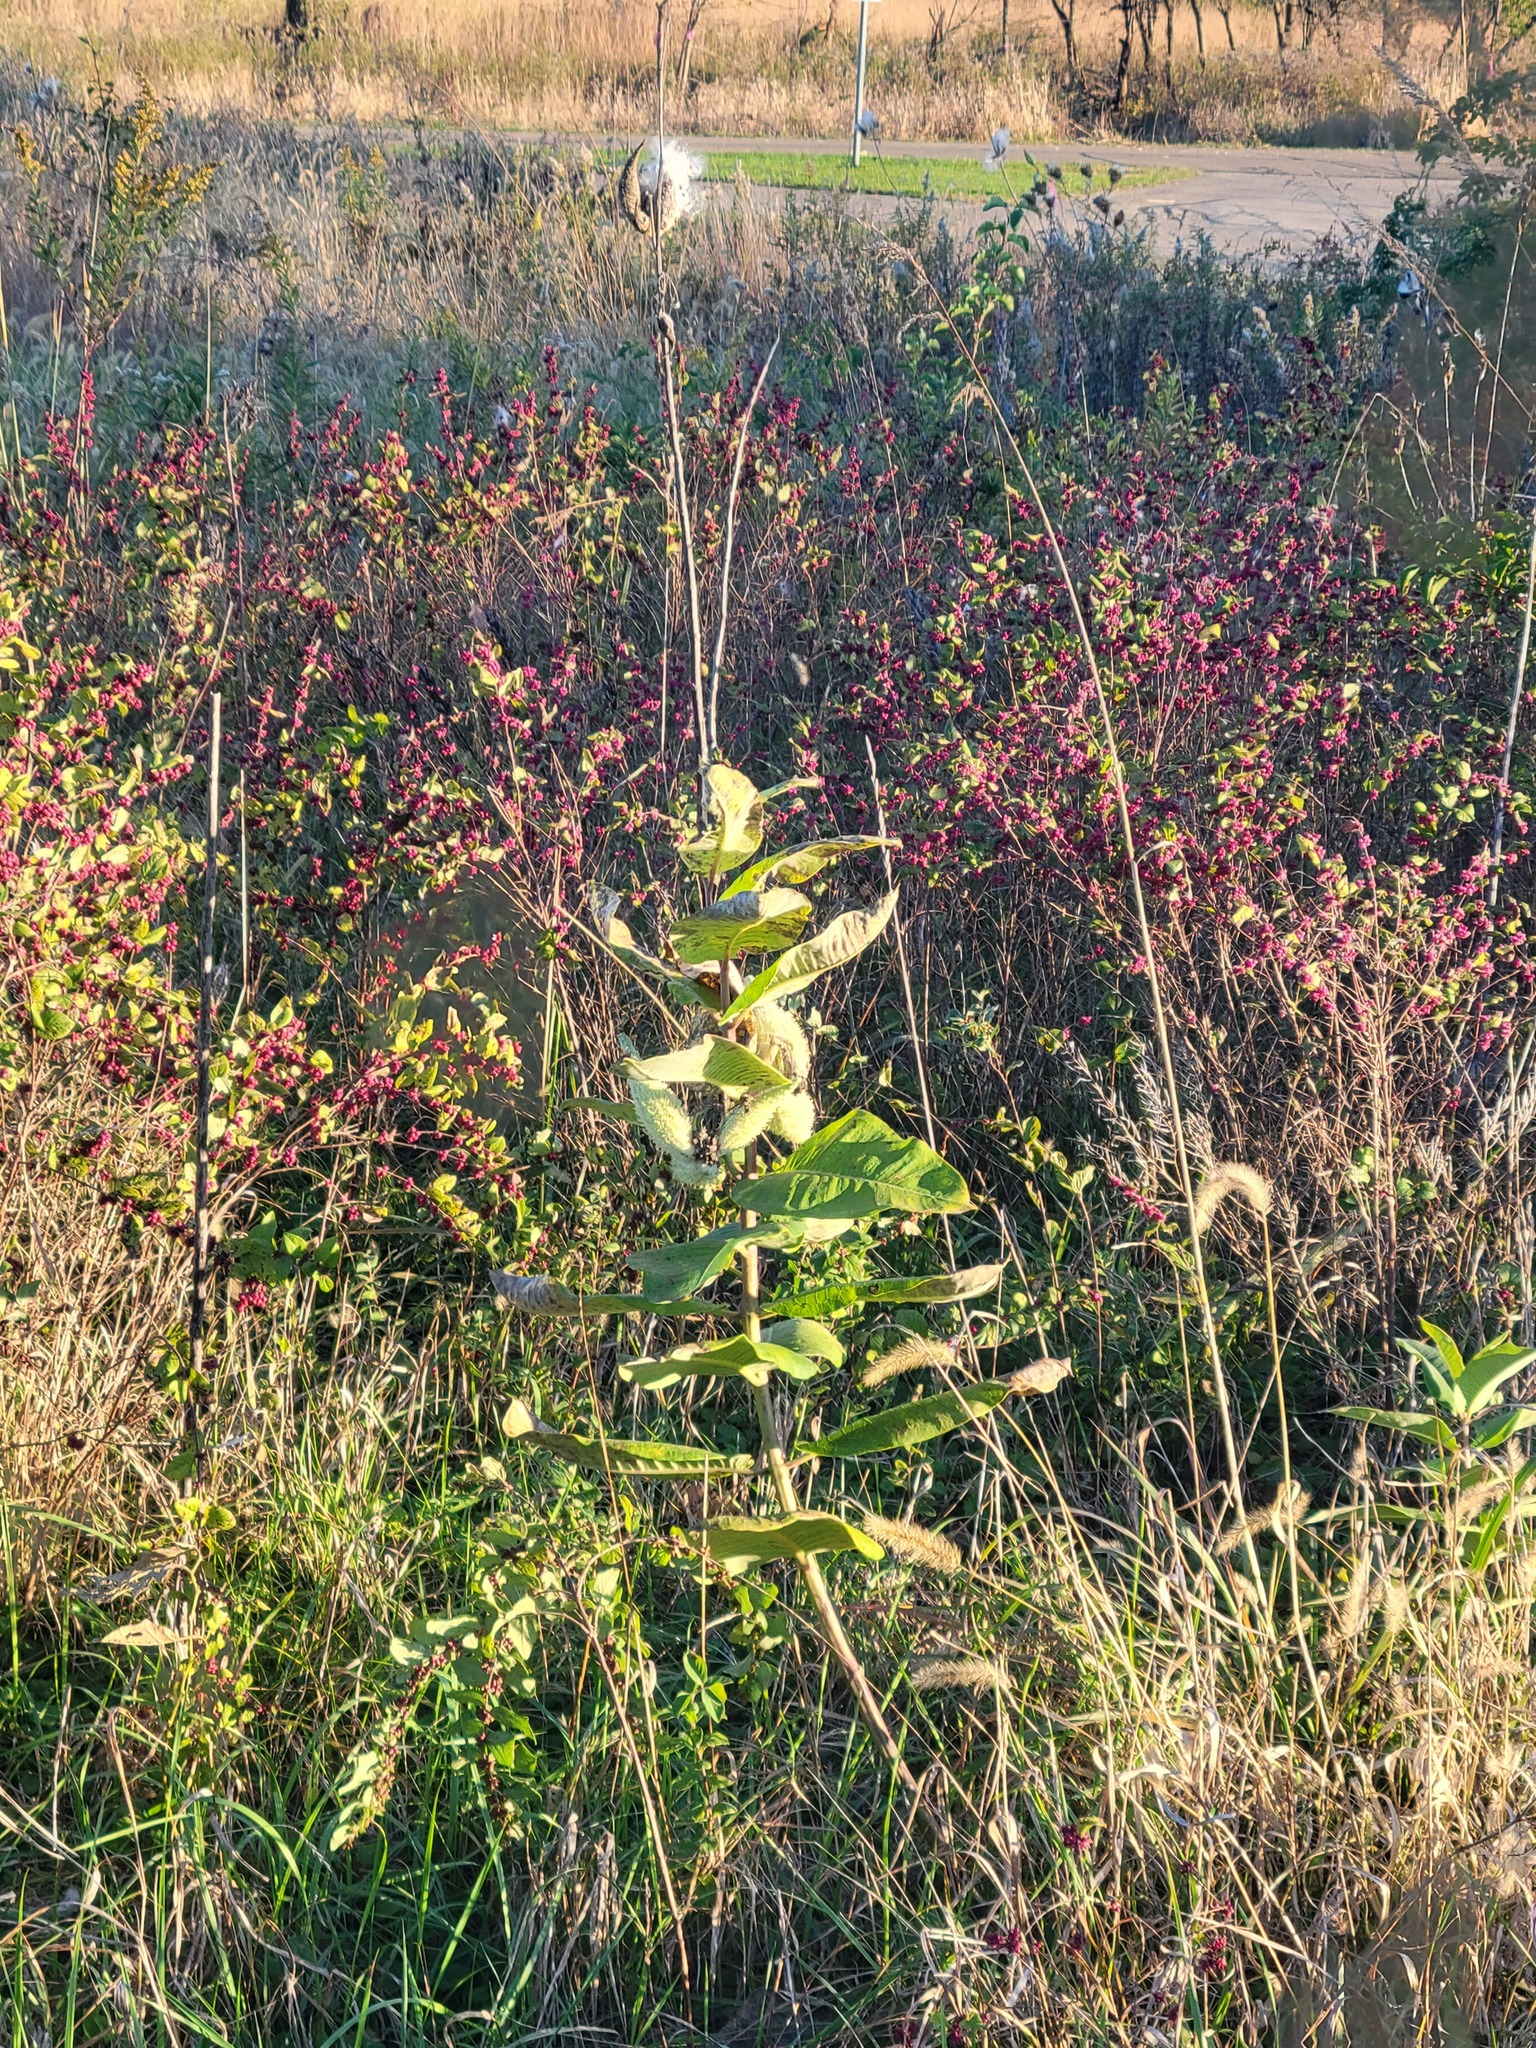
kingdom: Plantae
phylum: Tracheophyta
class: Magnoliopsida
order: Gentianales
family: Apocynaceae
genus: Asclepias
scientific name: Asclepias syriaca
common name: Common milkweed
